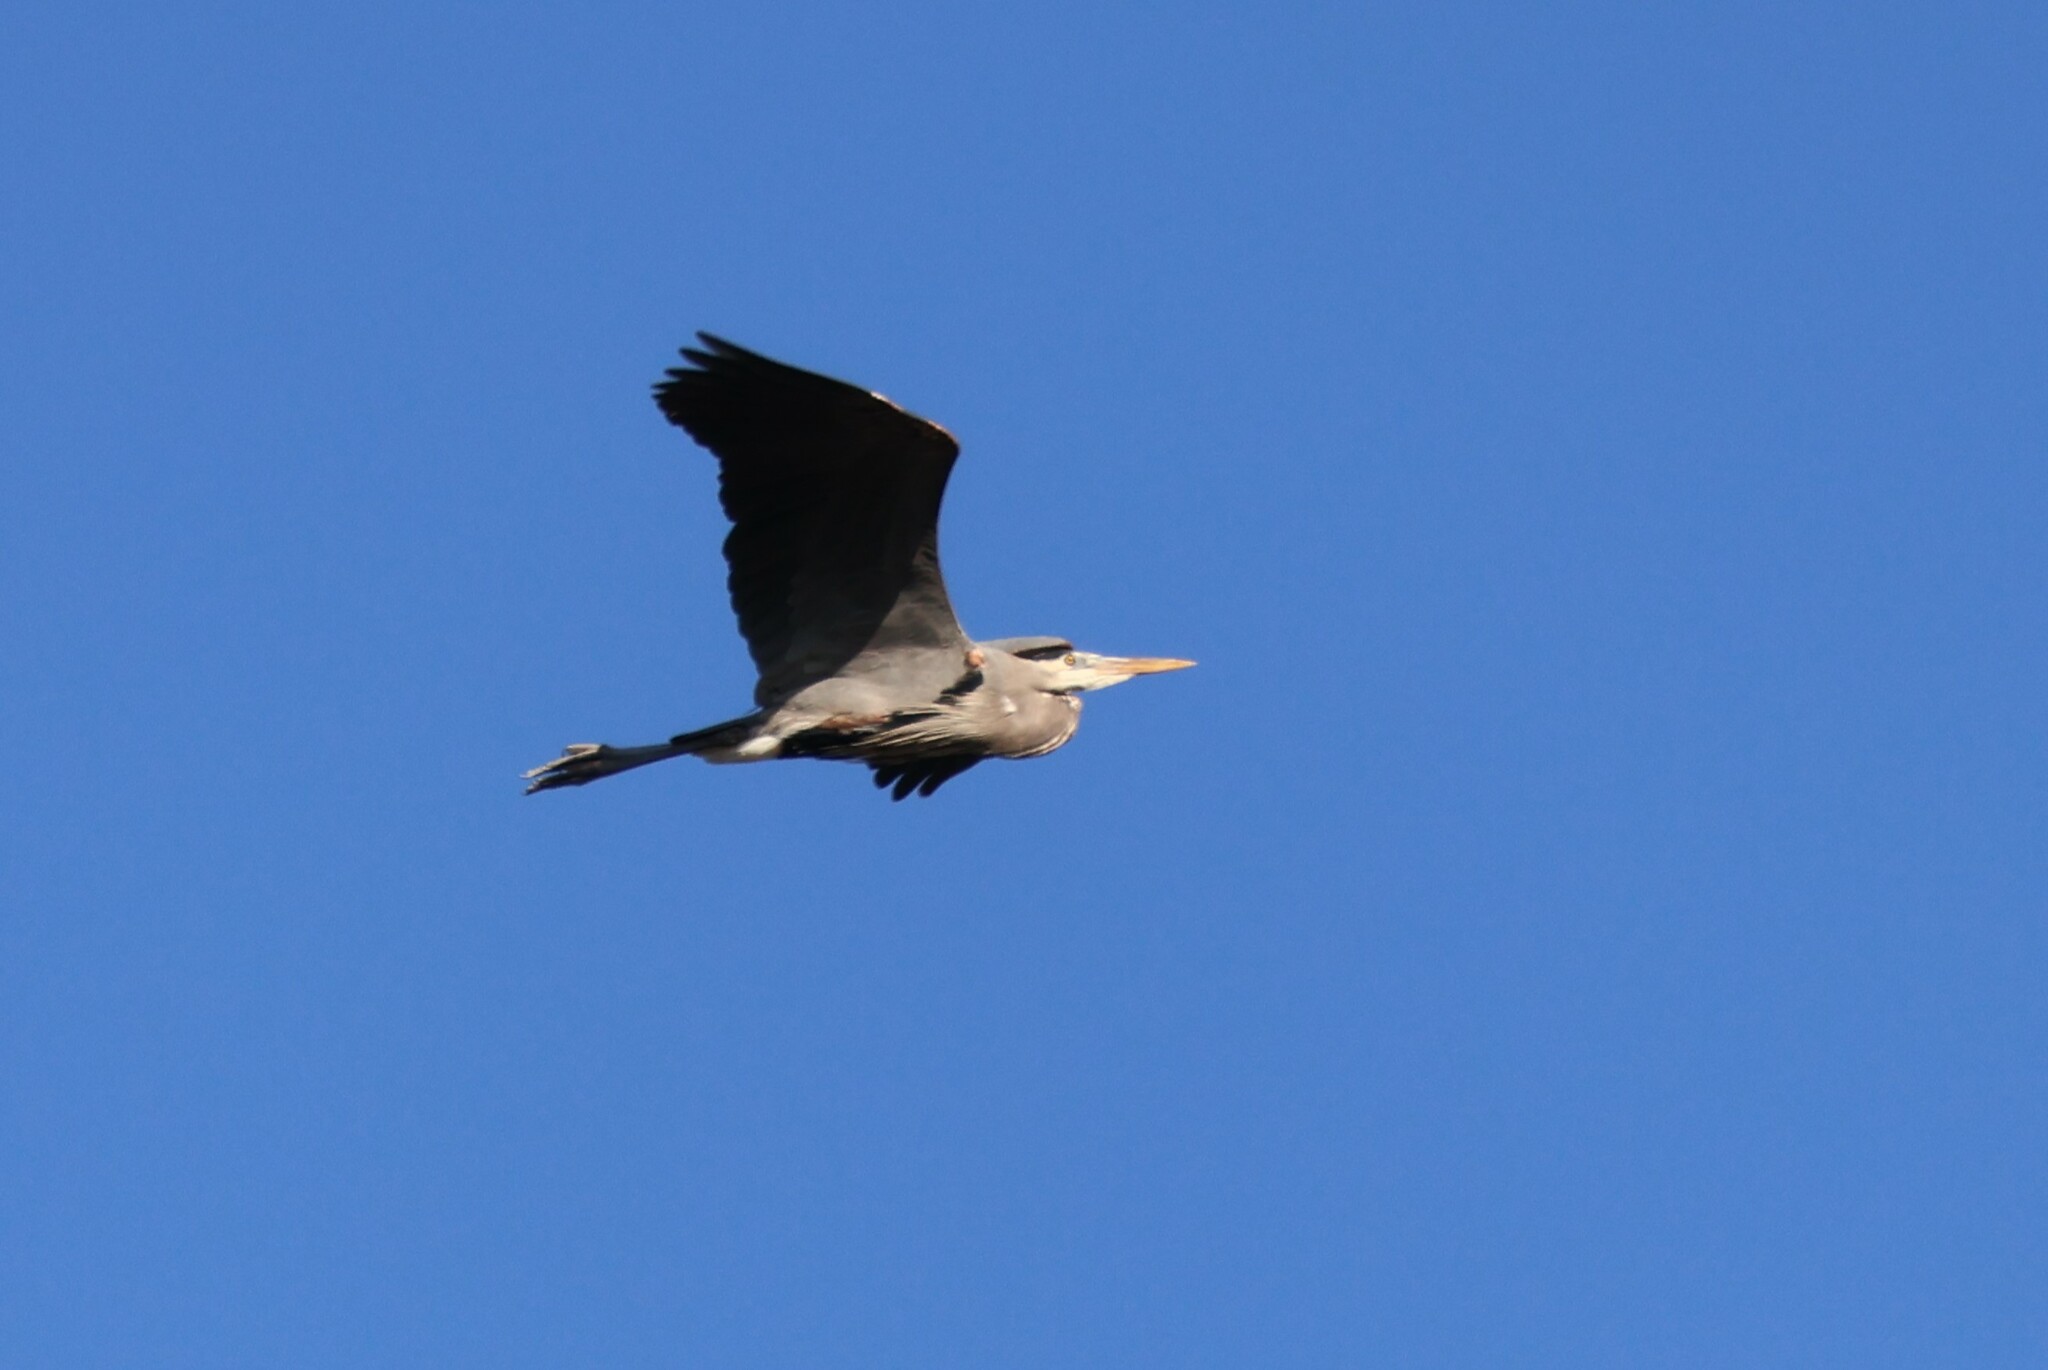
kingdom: Animalia
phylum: Chordata
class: Aves
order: Pelecaniformes
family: Ardeidae
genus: Ardea
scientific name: Ardea herodias
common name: Great blue heron
